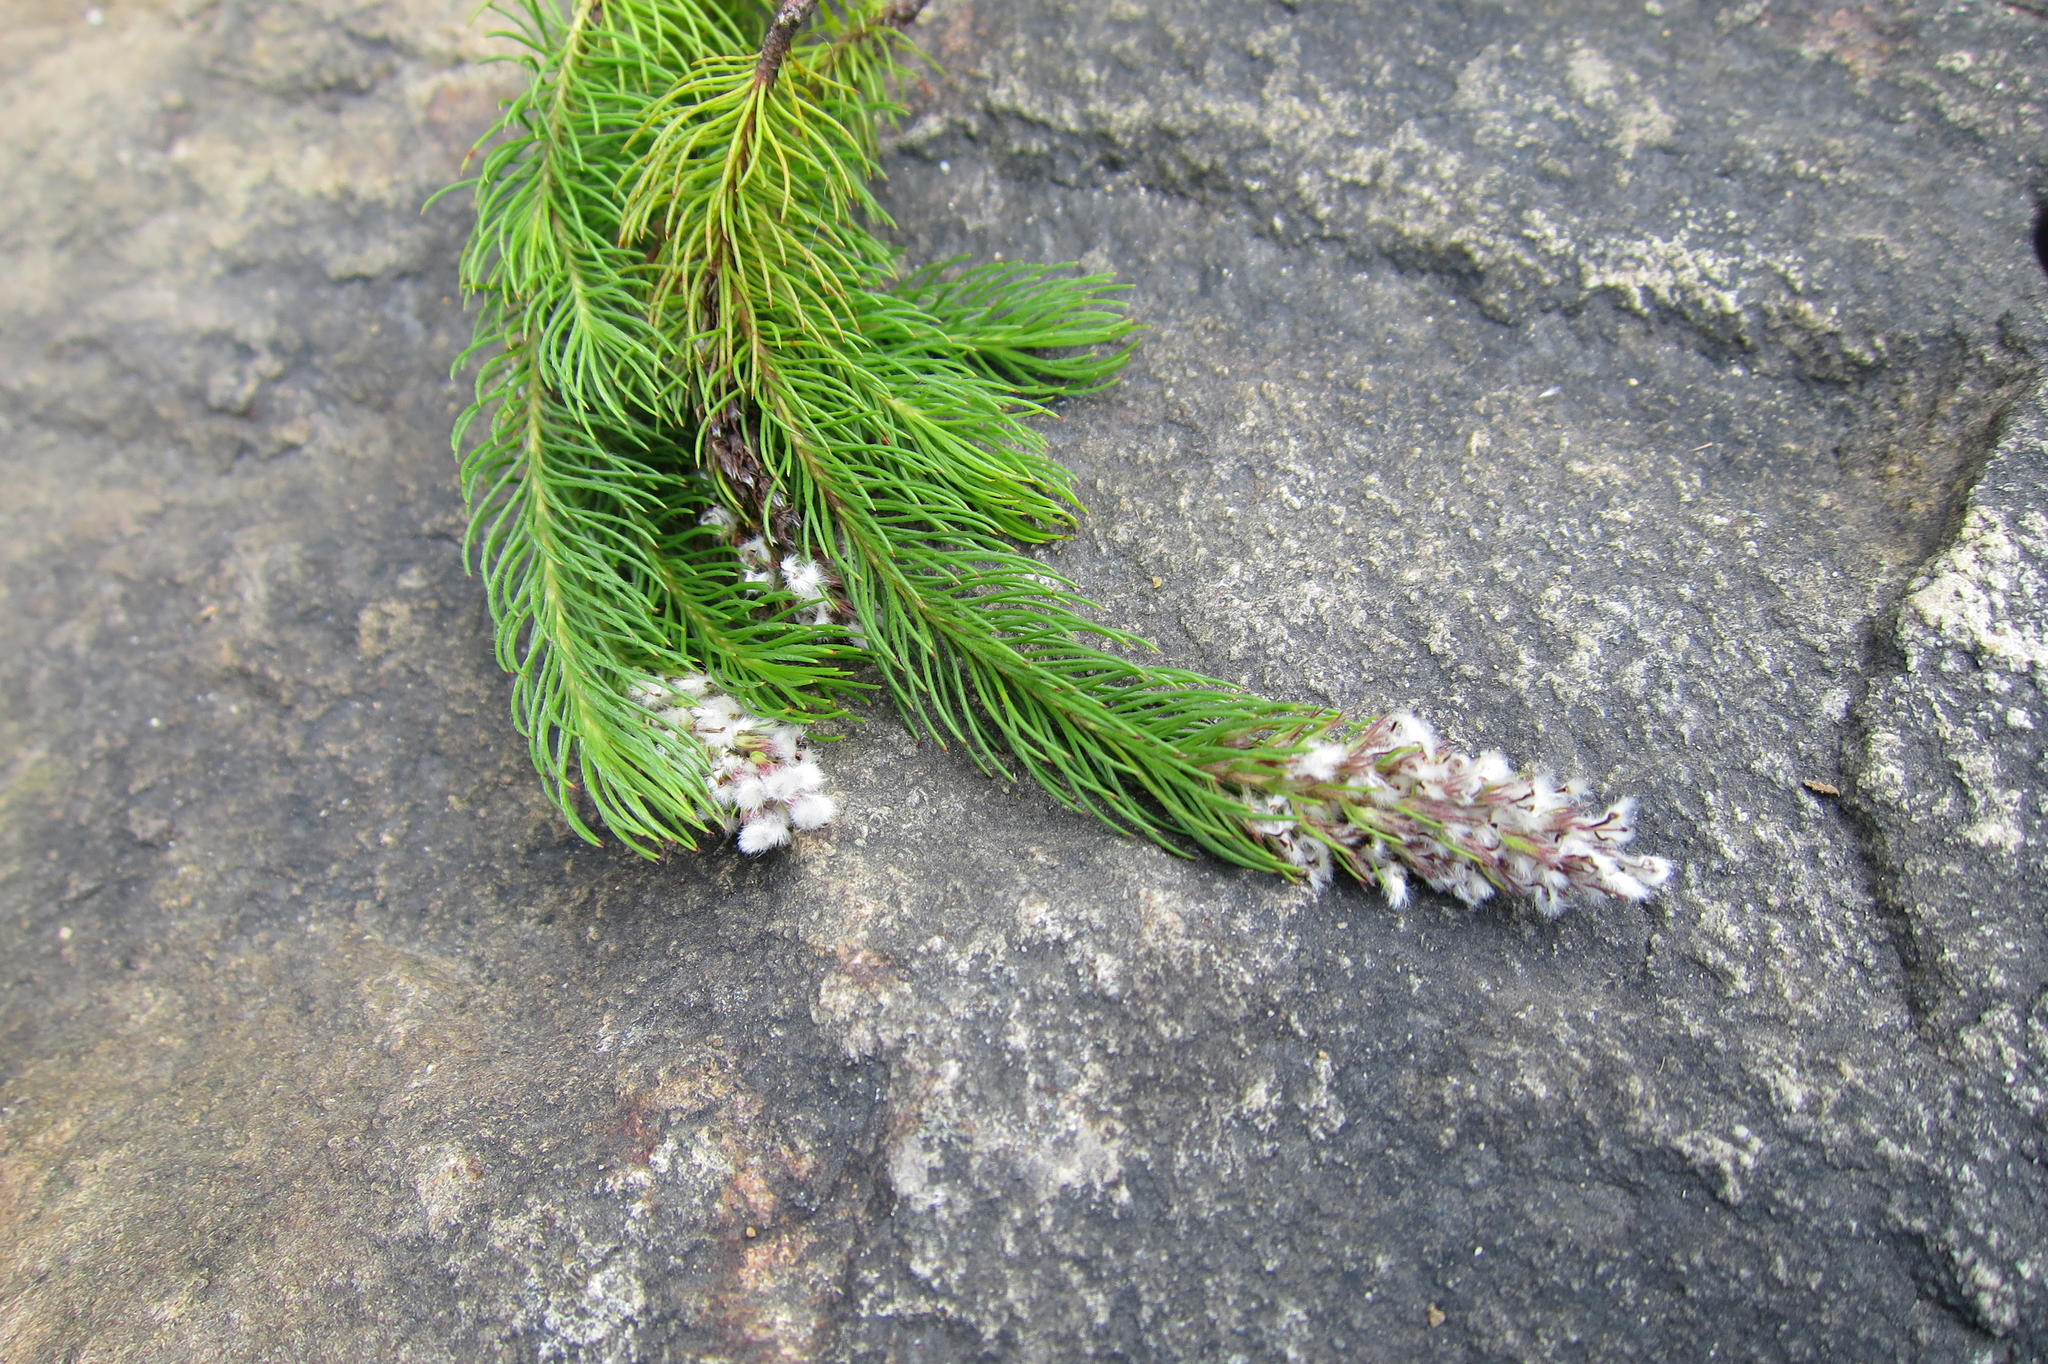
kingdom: Plantae
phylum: Tracheophyta
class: Magnoliopsida
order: Proteales
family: Proteaceae
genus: Spatalla
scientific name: Spatalla parilis
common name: Spike spoon
